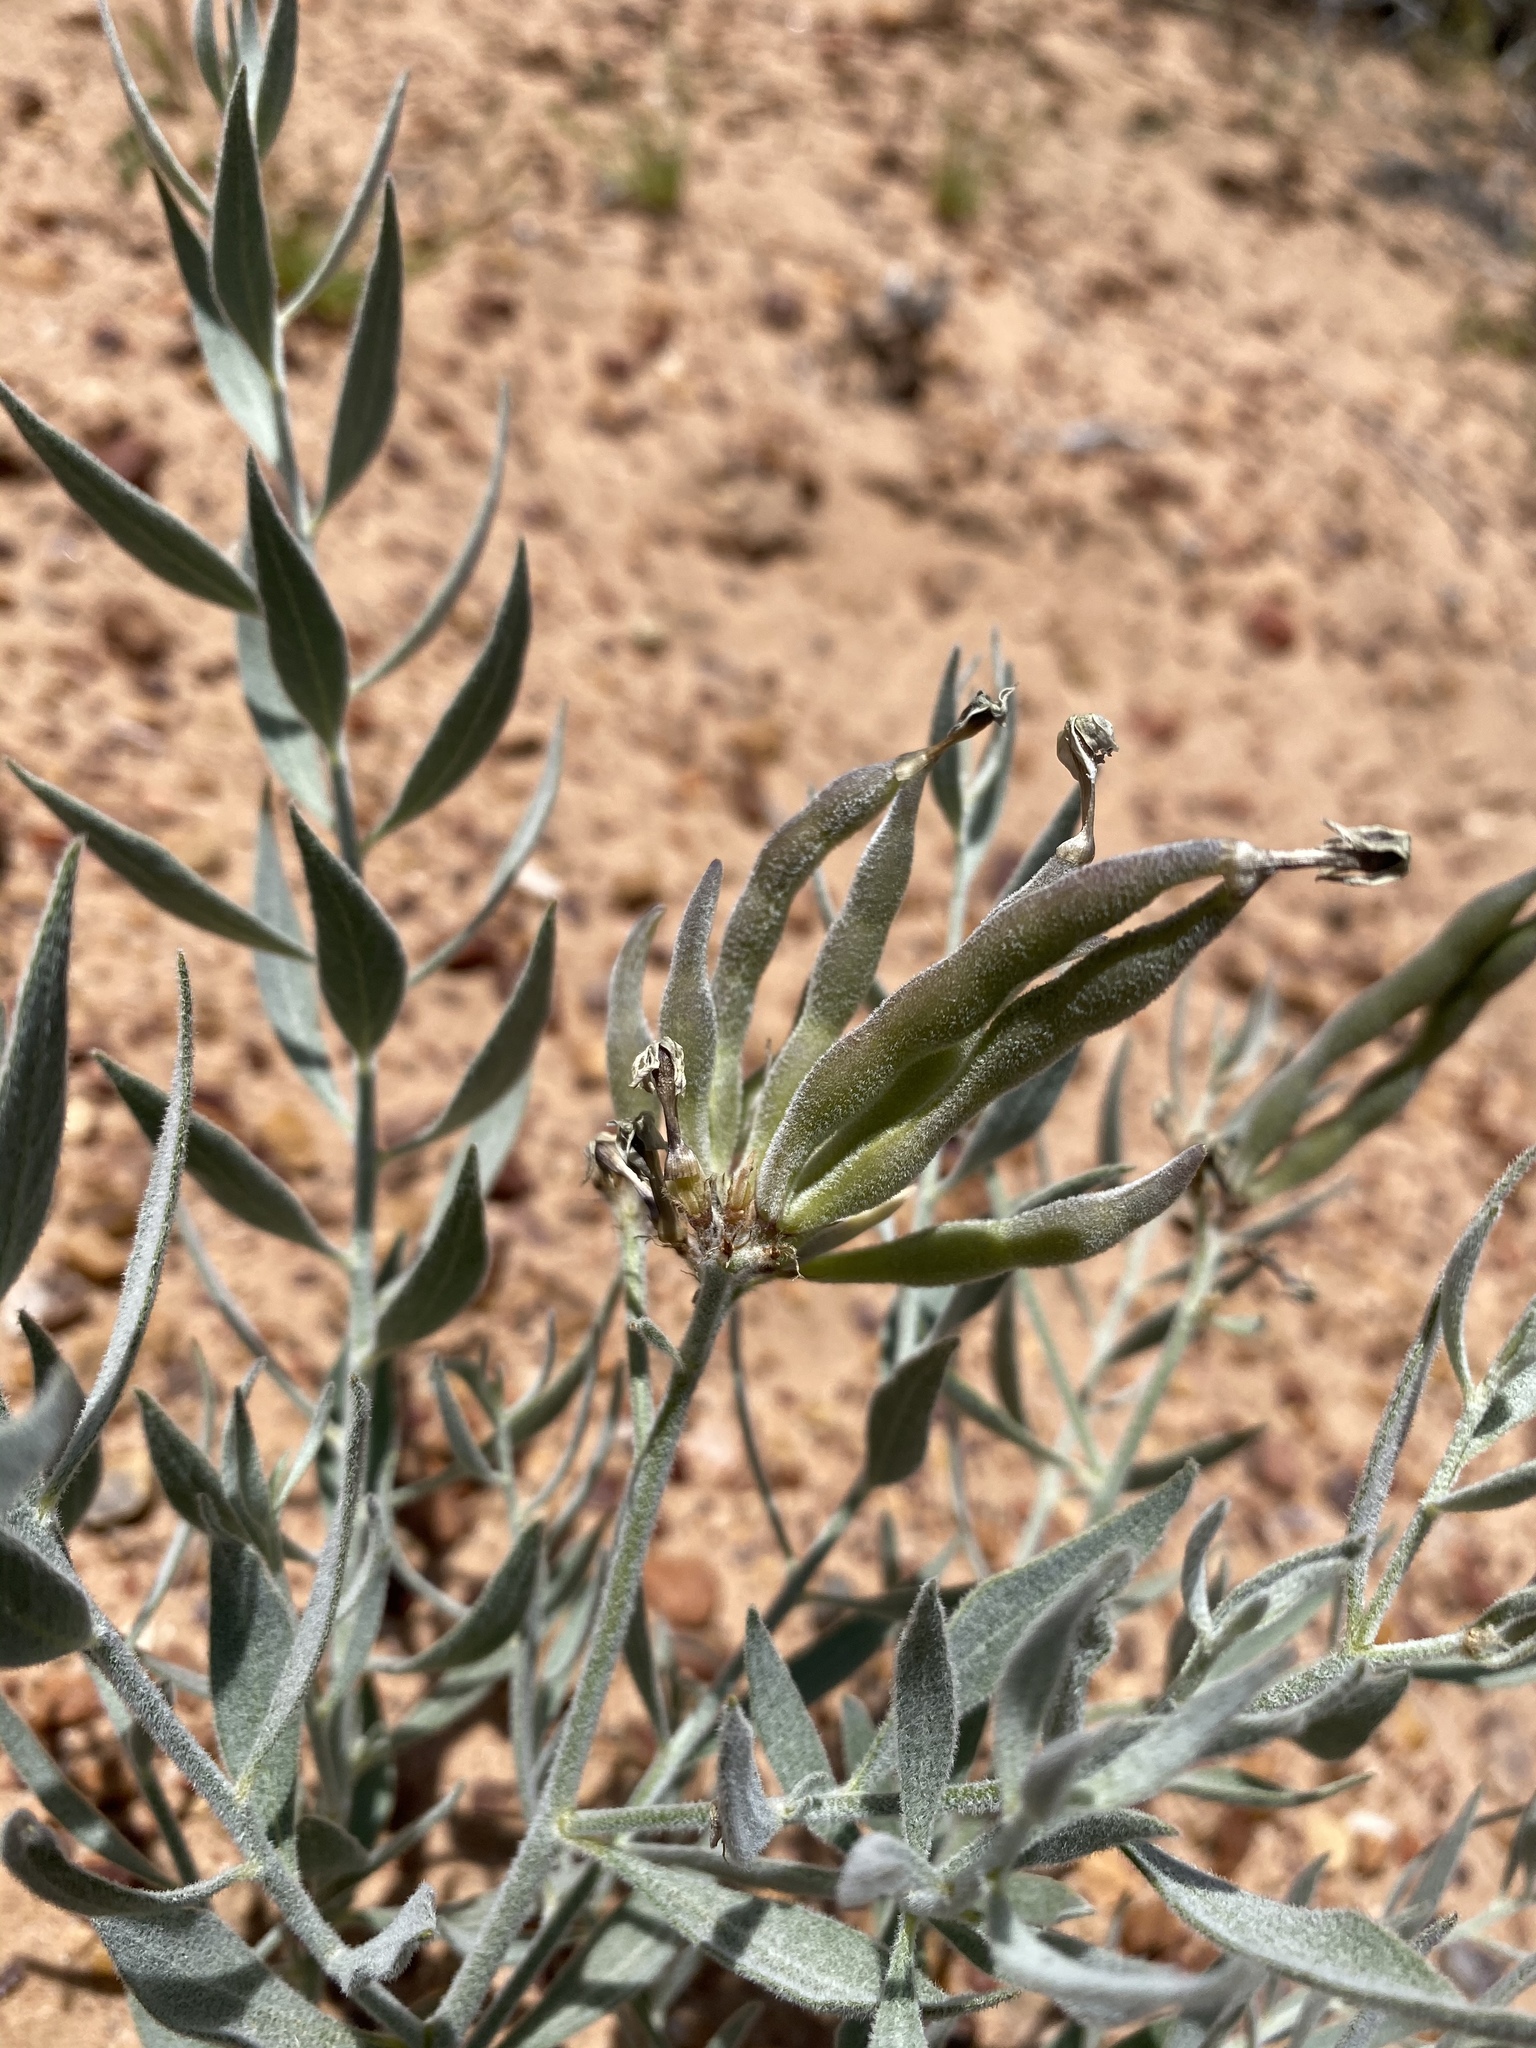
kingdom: Plantae
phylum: Tracheophyta
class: Magnoliopsida
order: Gentianales
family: Apocynaceae
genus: Amsonia
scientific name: Amsonia tomentosa
